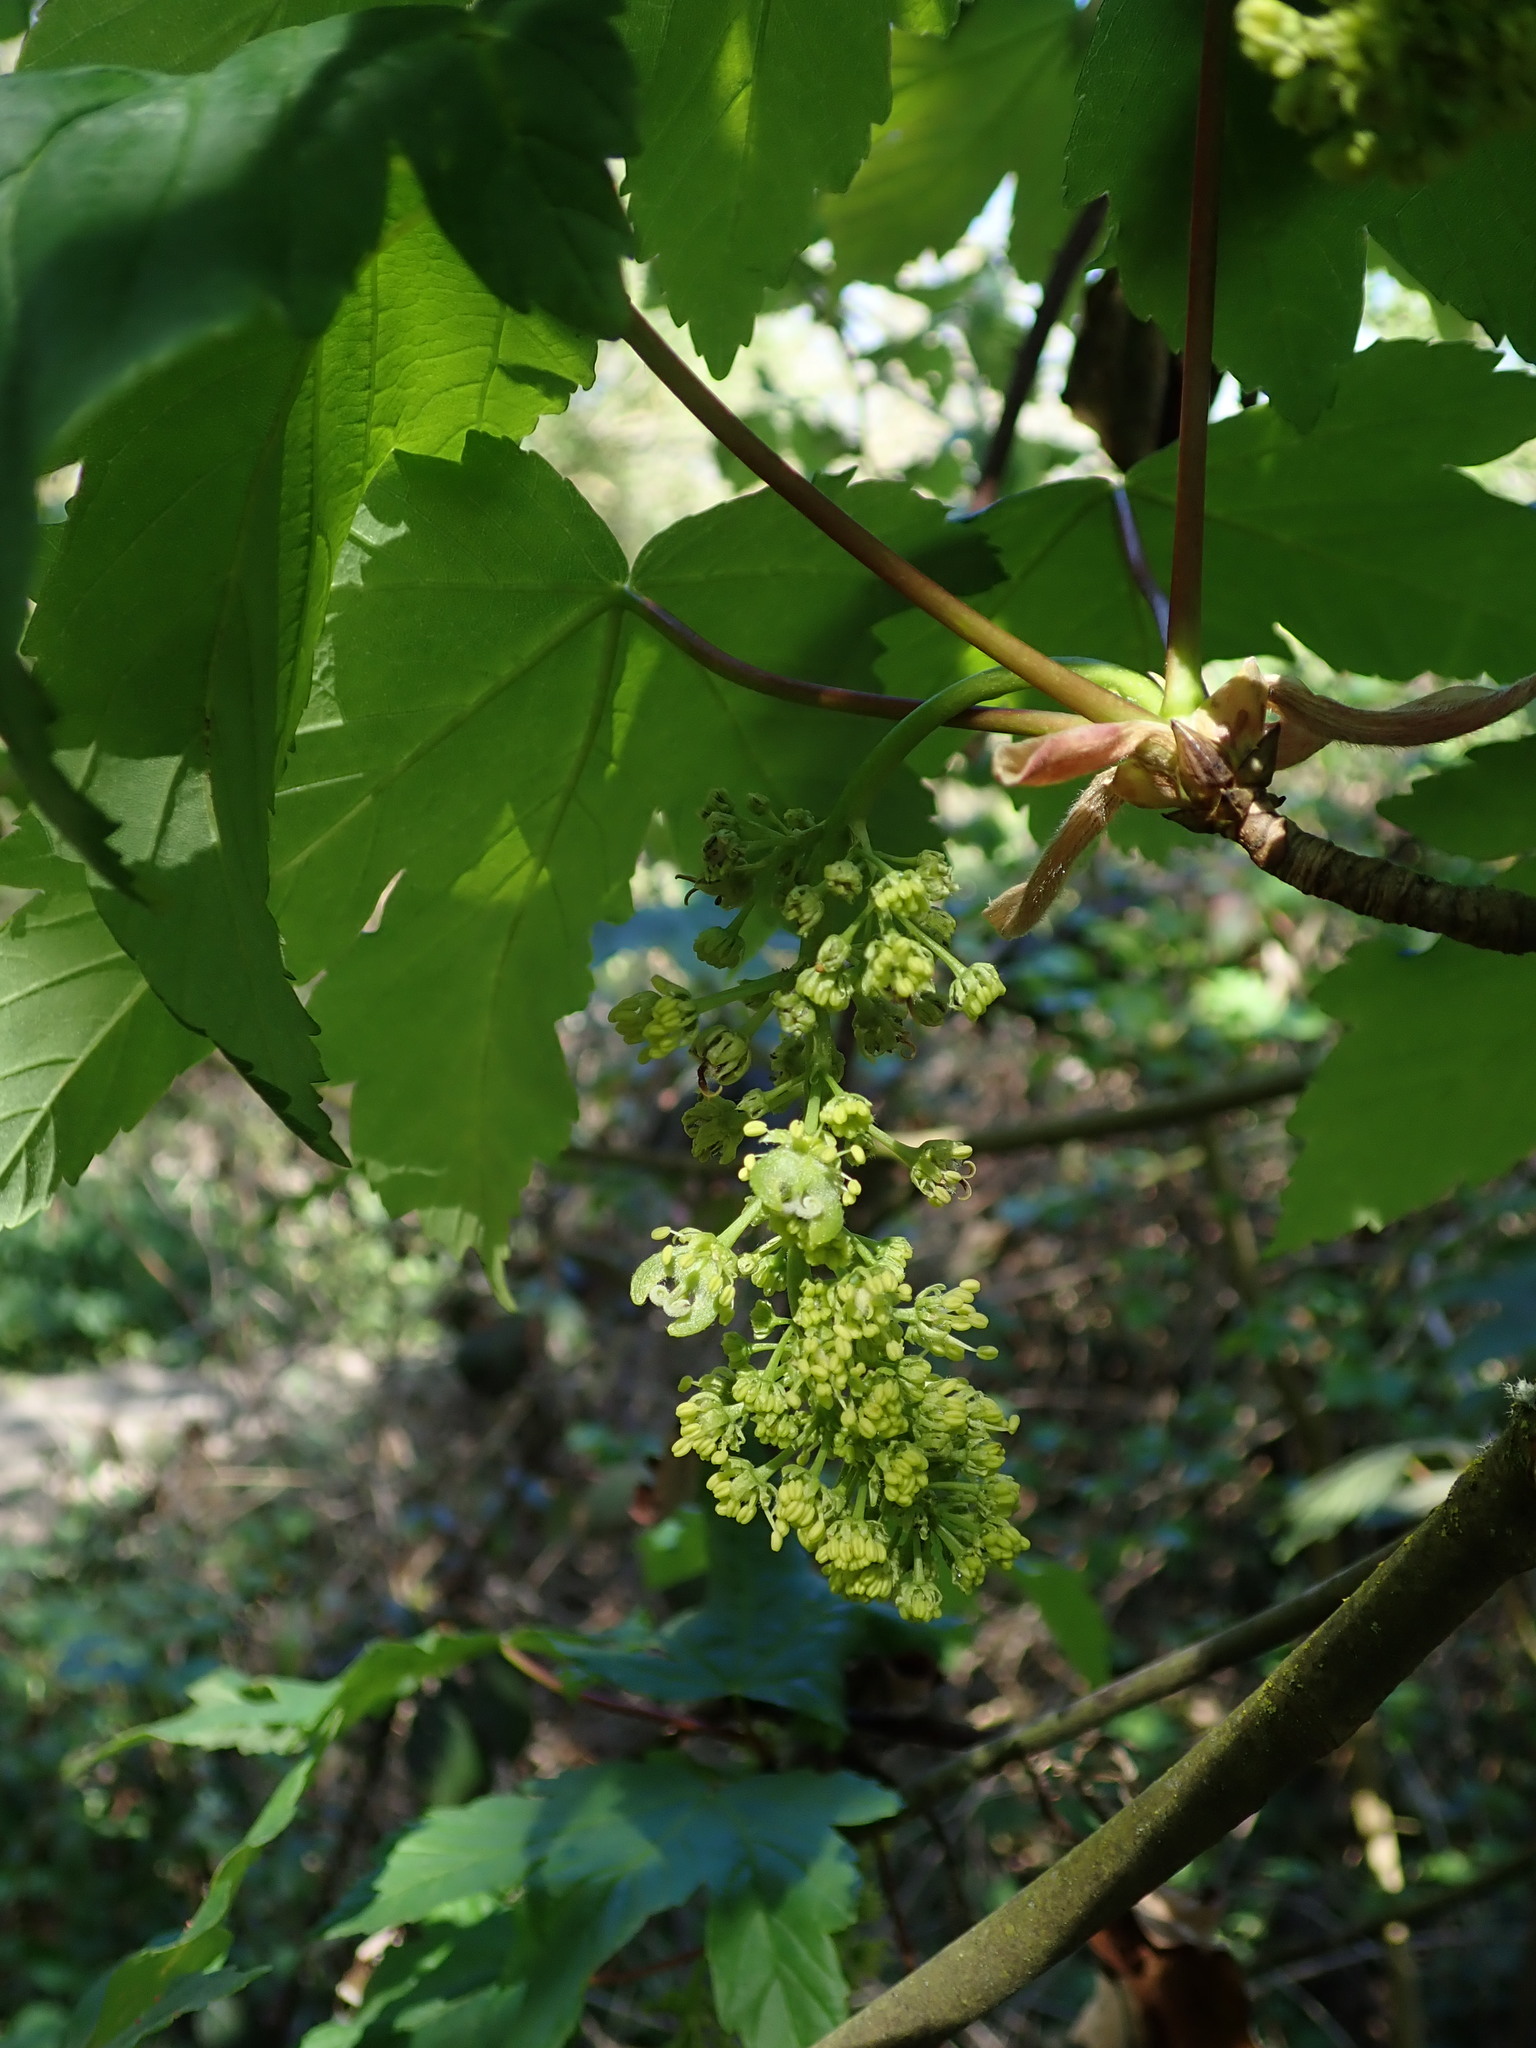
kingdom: Plantae
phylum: Tracheophyta
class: Magnoliopsida
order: Sapindales
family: Sapindaceae
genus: Acer
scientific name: Acer pseudoplatanus
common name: Sycamore
